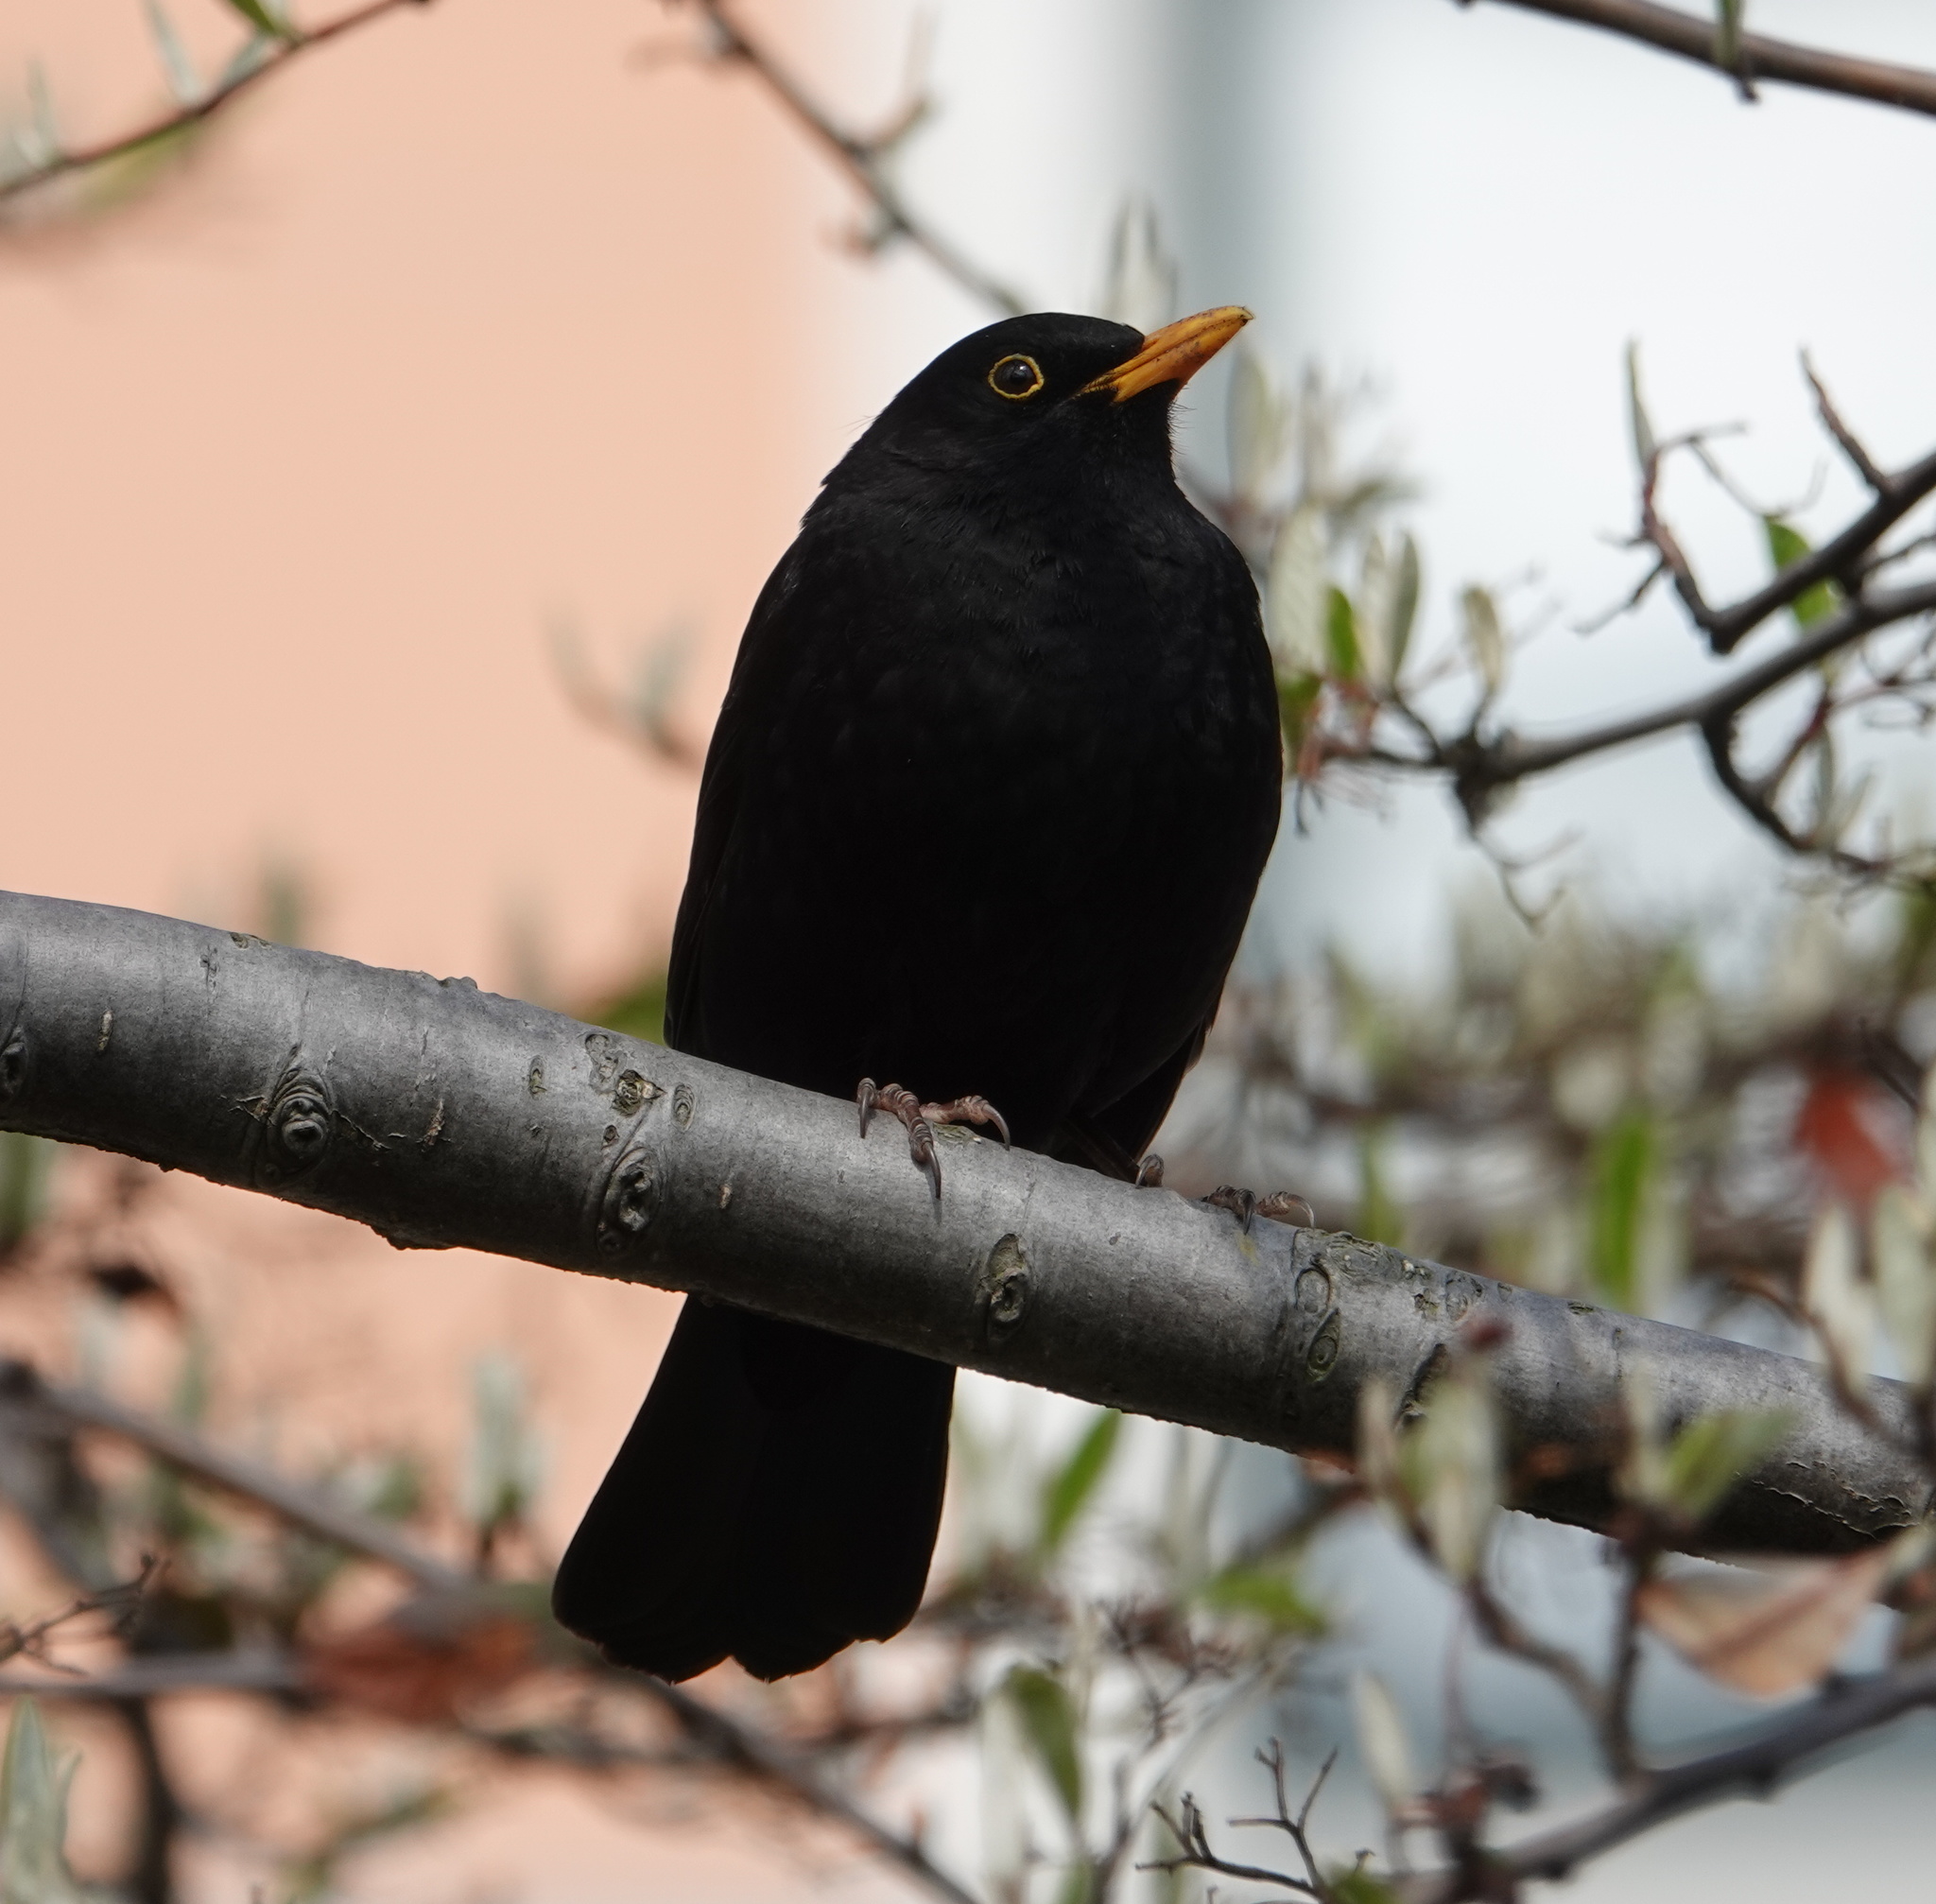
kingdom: Animalia
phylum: Chordata
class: Aves
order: Passeriformes
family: Turdidae
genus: Turdus
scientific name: Turdus merula
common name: Common blackbird
